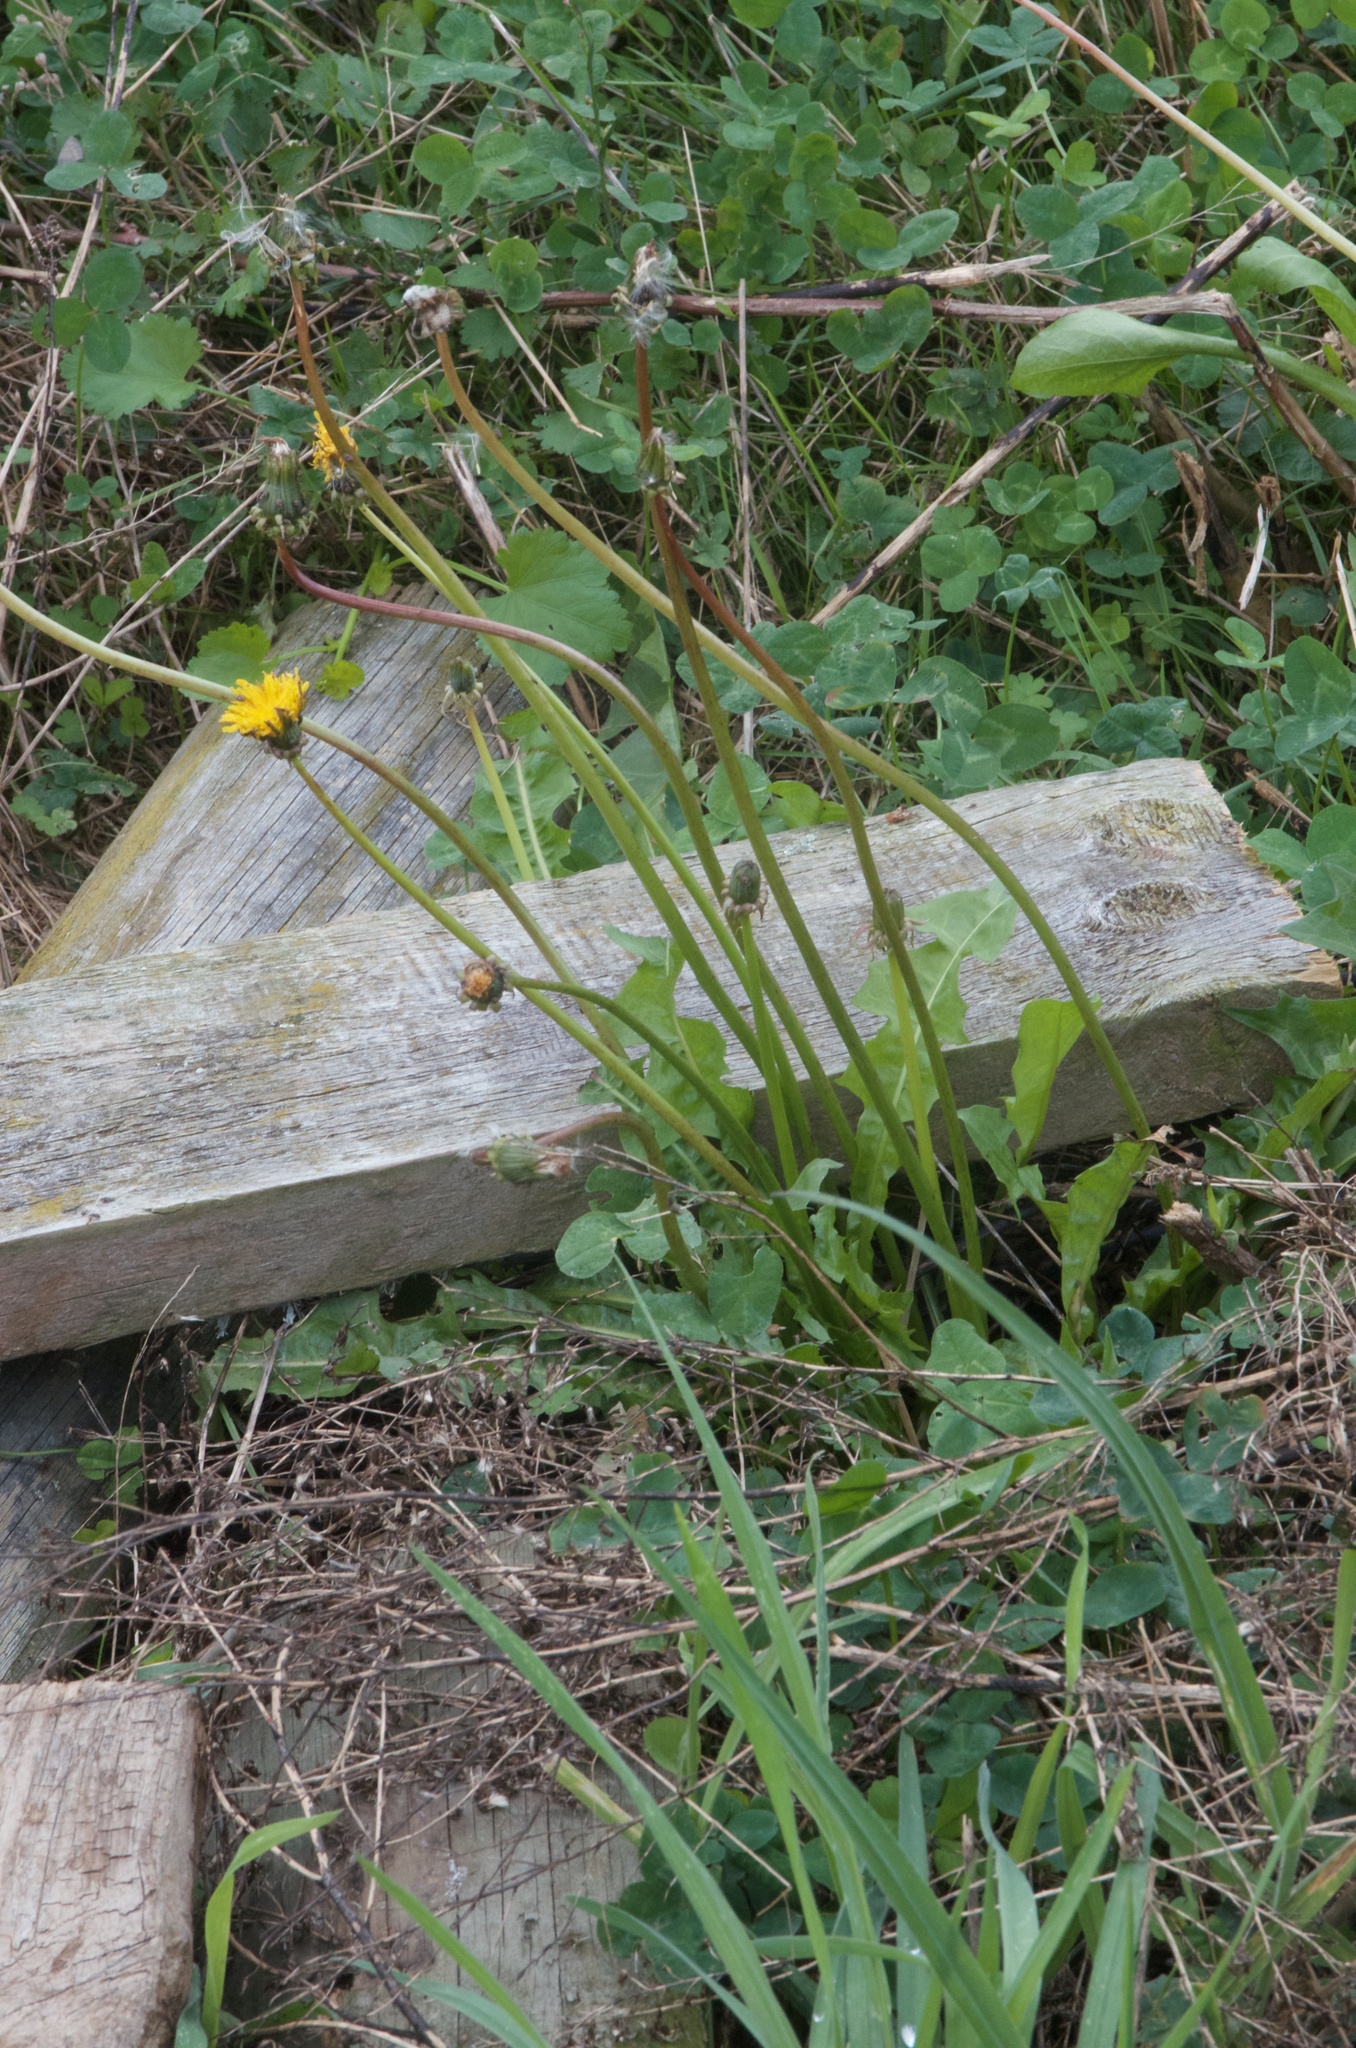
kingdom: Plantae
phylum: Tracheophyta
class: Magnoliopsida
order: Asterales
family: Asteraceae
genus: Taraxacum
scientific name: Taraxacum officinale
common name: Common dandelion
